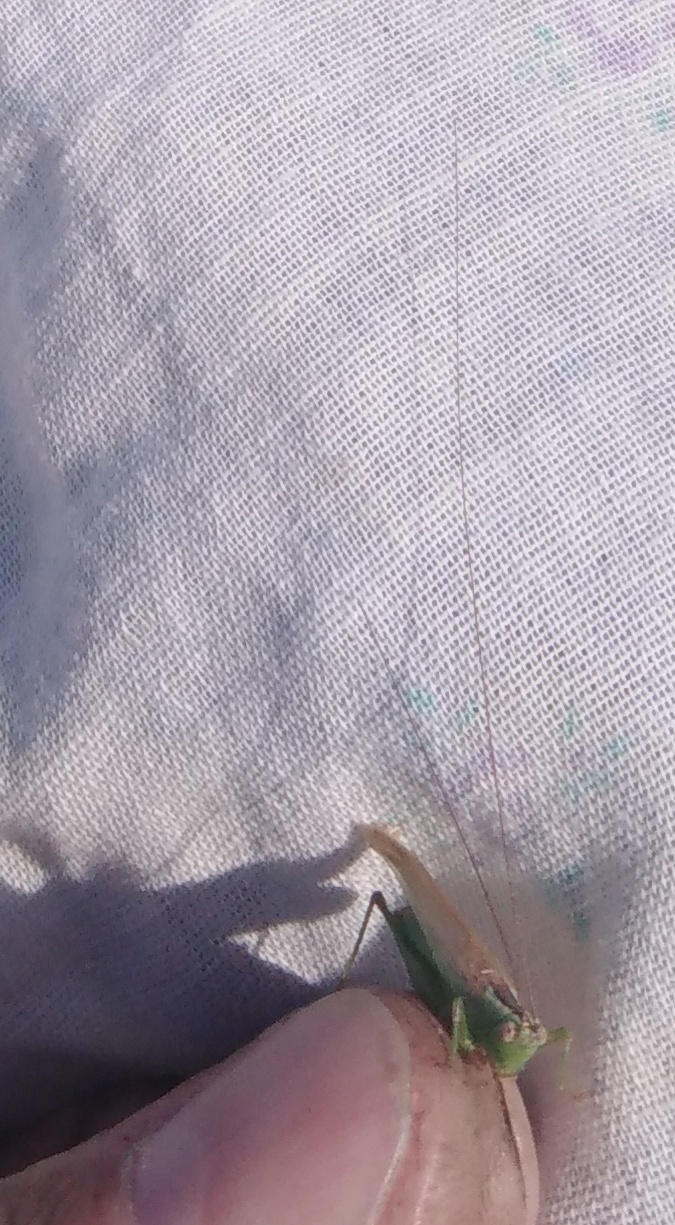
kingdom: Animalia
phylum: Arthropoda
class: Insecta
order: Orthoptera
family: Tettigoniidae
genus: Conocephalus
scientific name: Conocephalus fuscus
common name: Long-winged conehead
